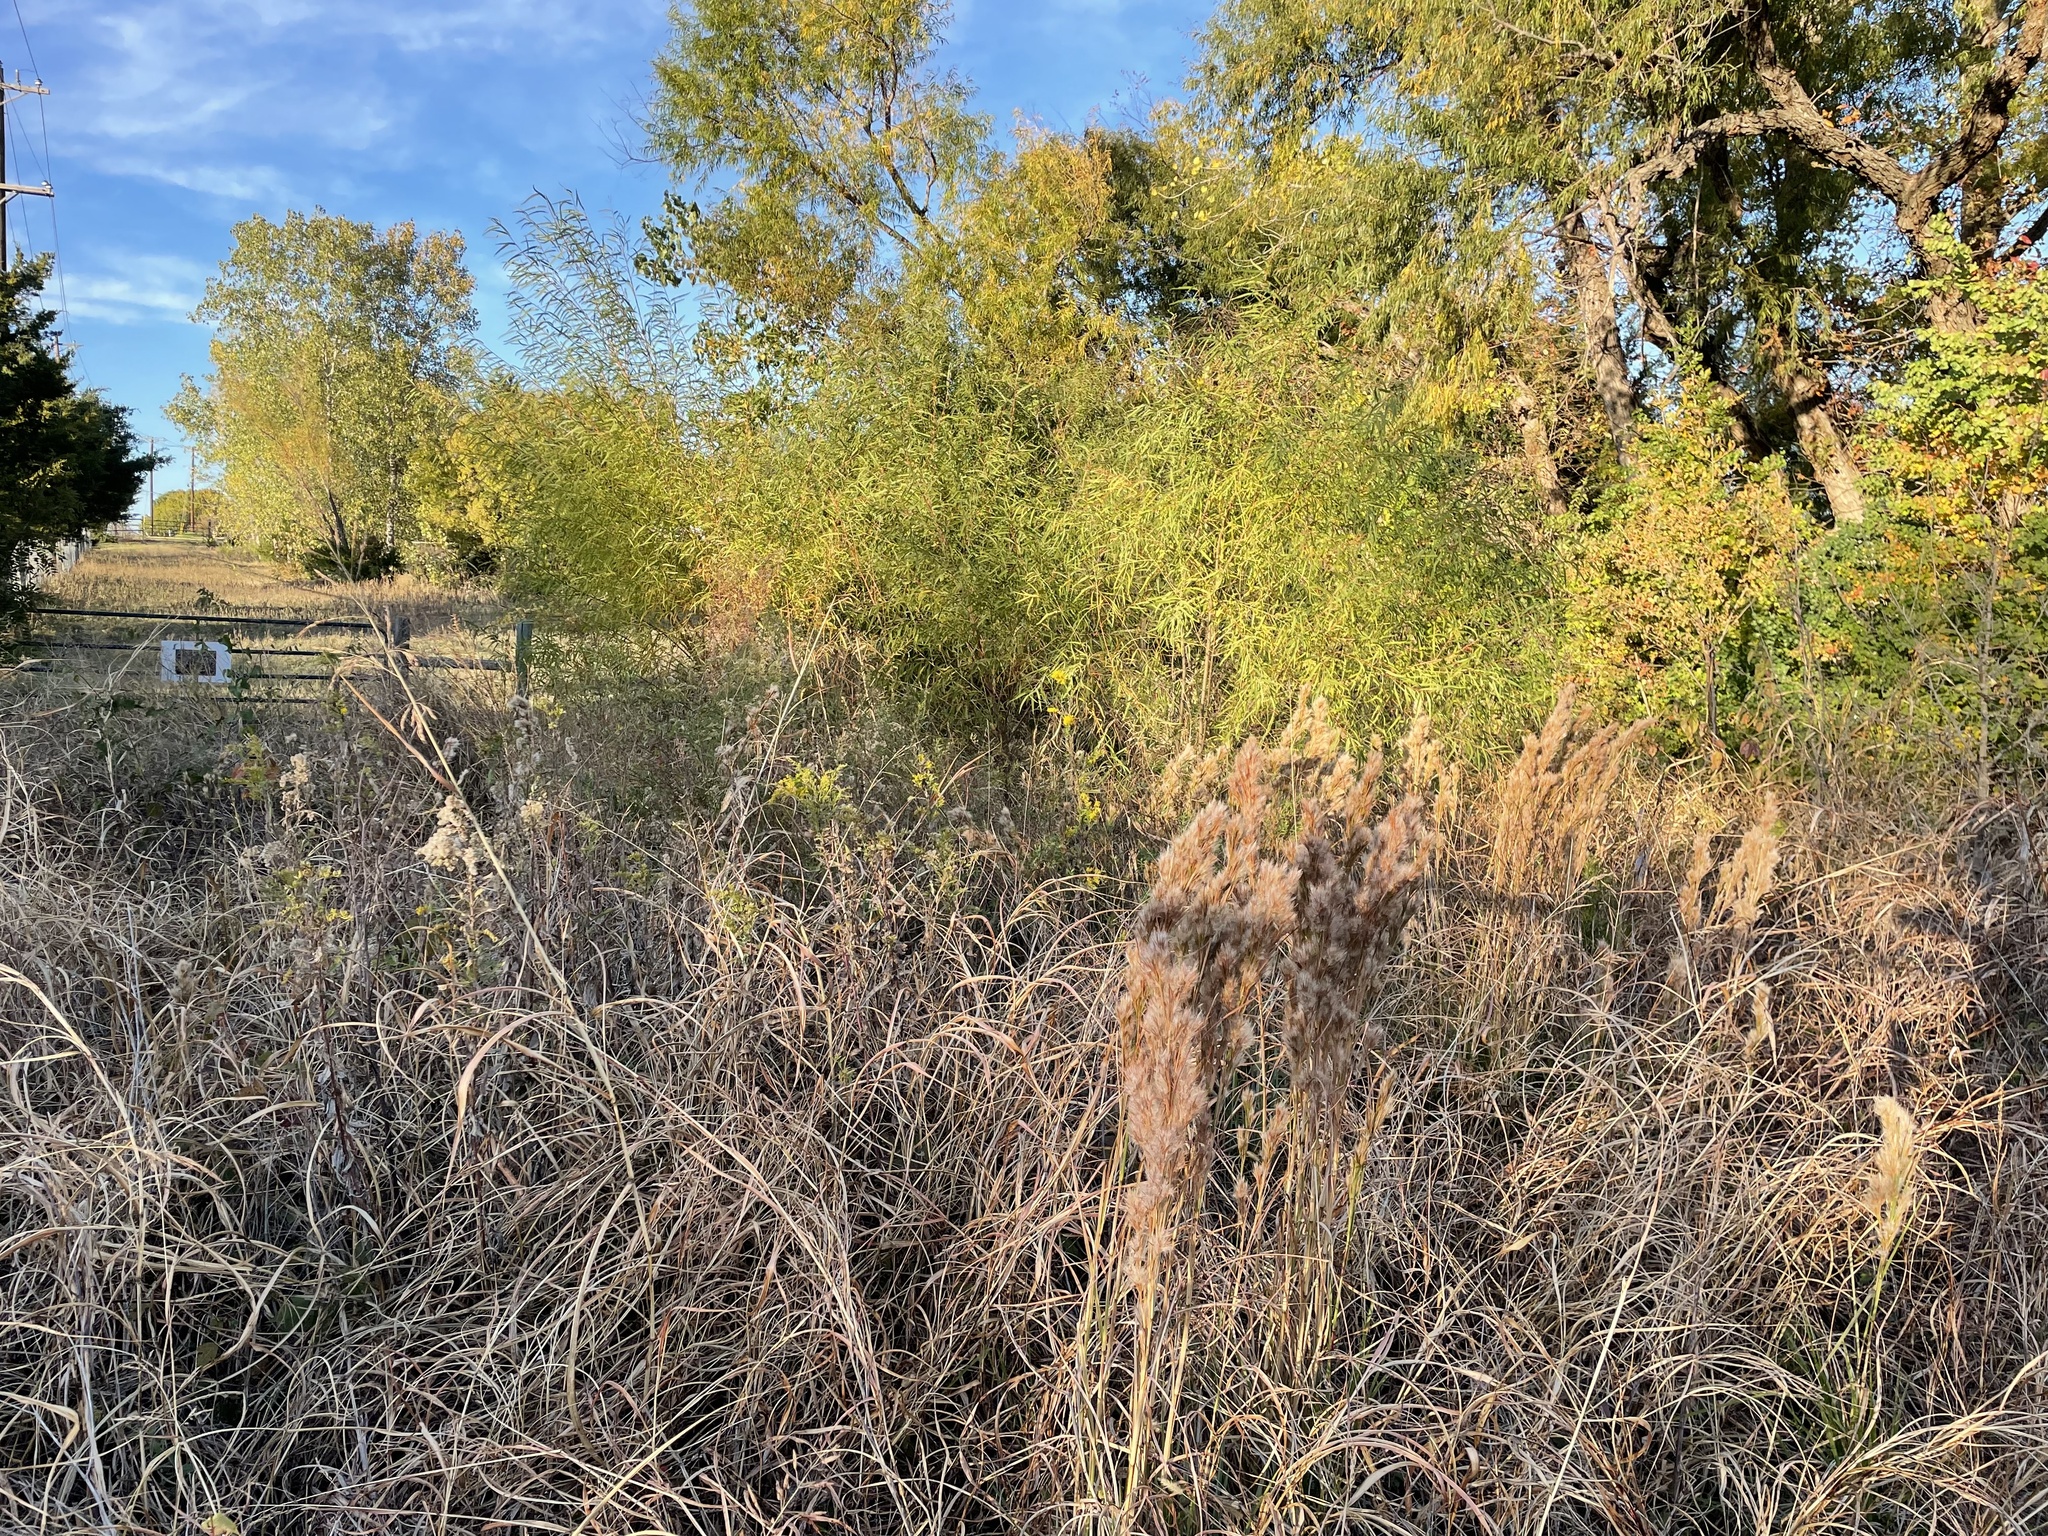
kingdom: Plantae
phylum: Tracheophyta
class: Liliopsida
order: Poales
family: Poaceae
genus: Andropogon
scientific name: Andropogon tenuispatheus
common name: Bushy bluestem
